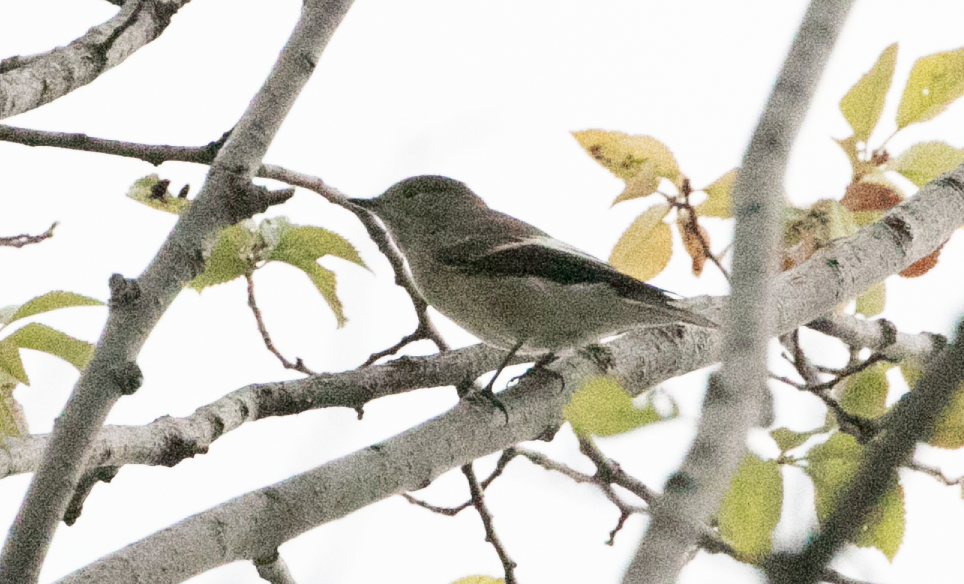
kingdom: Animalia
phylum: Chordata
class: Aves
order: Passeriformes
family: Muscicapidae
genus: Ficedula
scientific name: Ficedula hypoleuca
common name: European pied flycatcher
